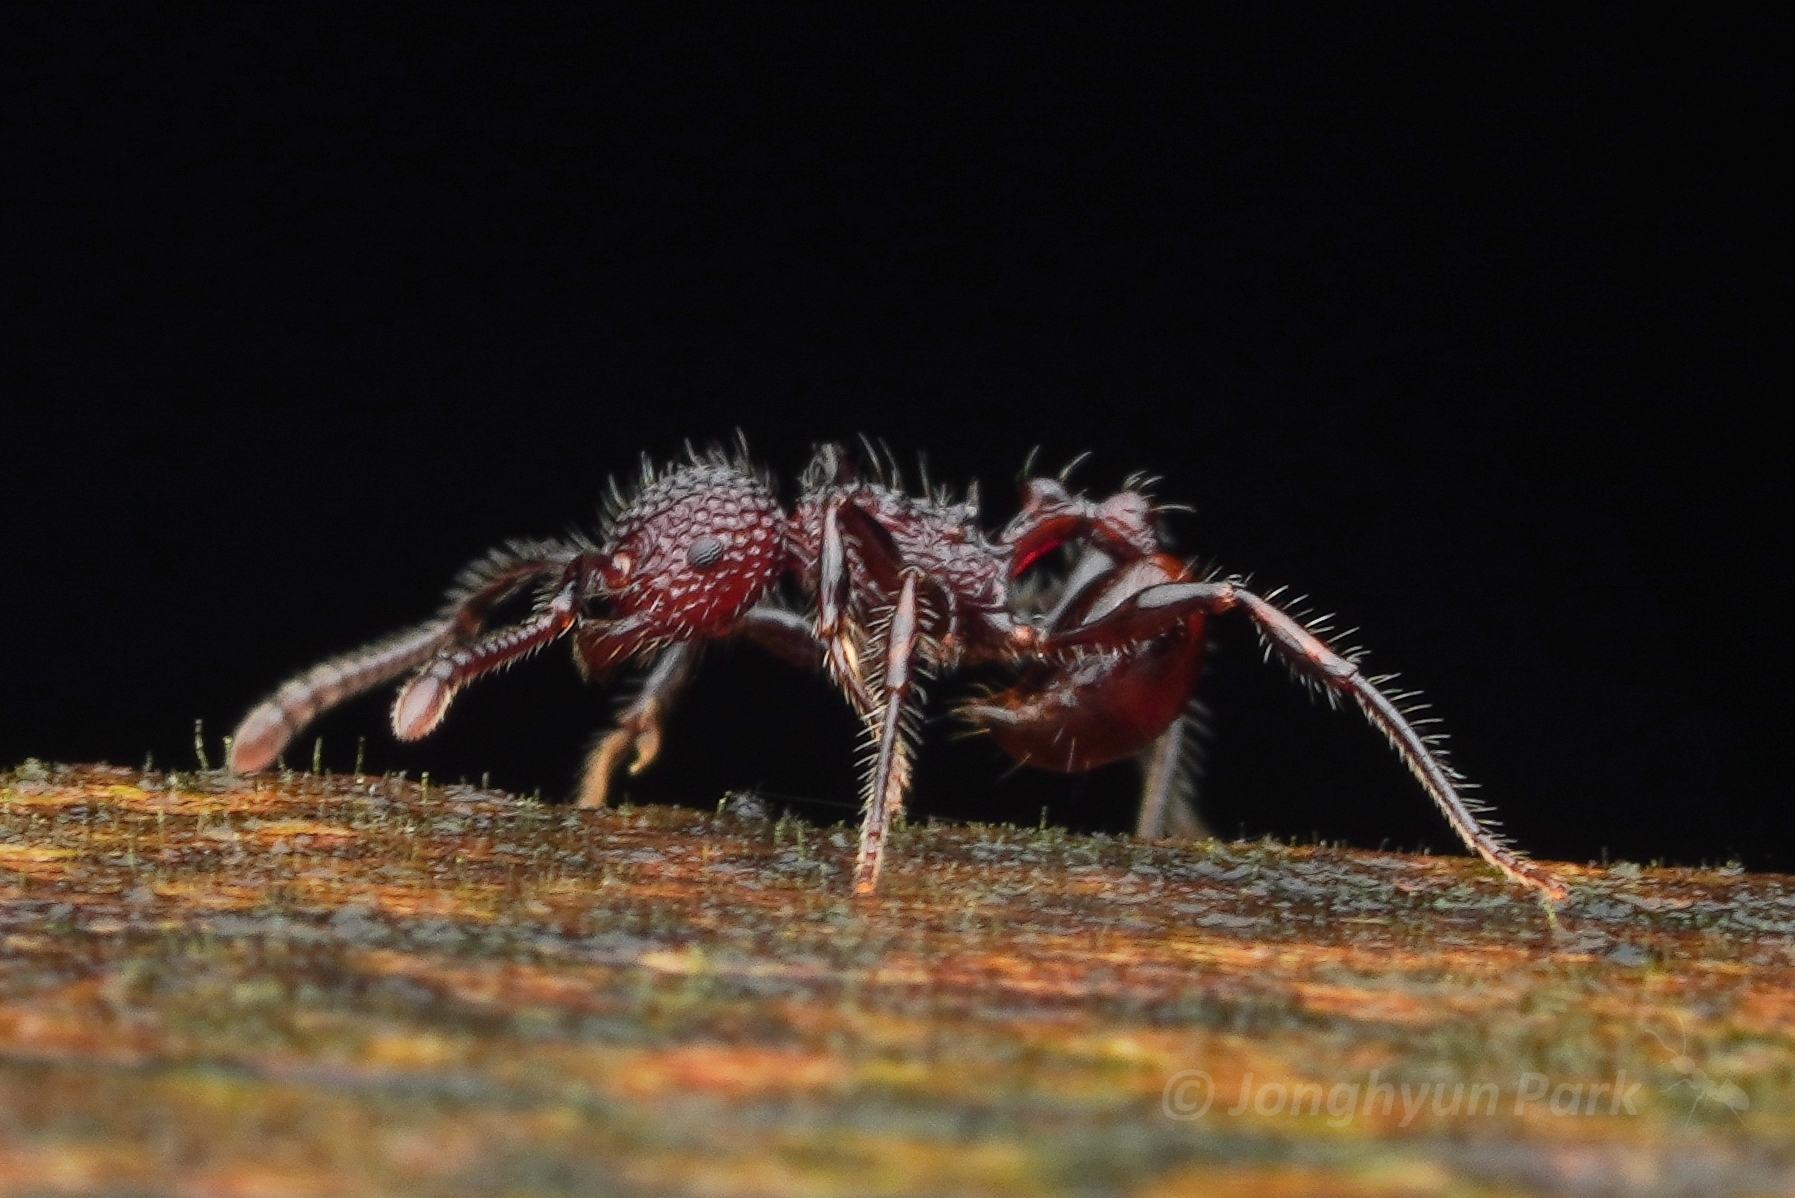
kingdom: Animalia
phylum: Arthropoda
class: Insecta
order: Hymenoptera
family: Formicidae
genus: Pristomyrmex
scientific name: Pristomyrmex costatus
